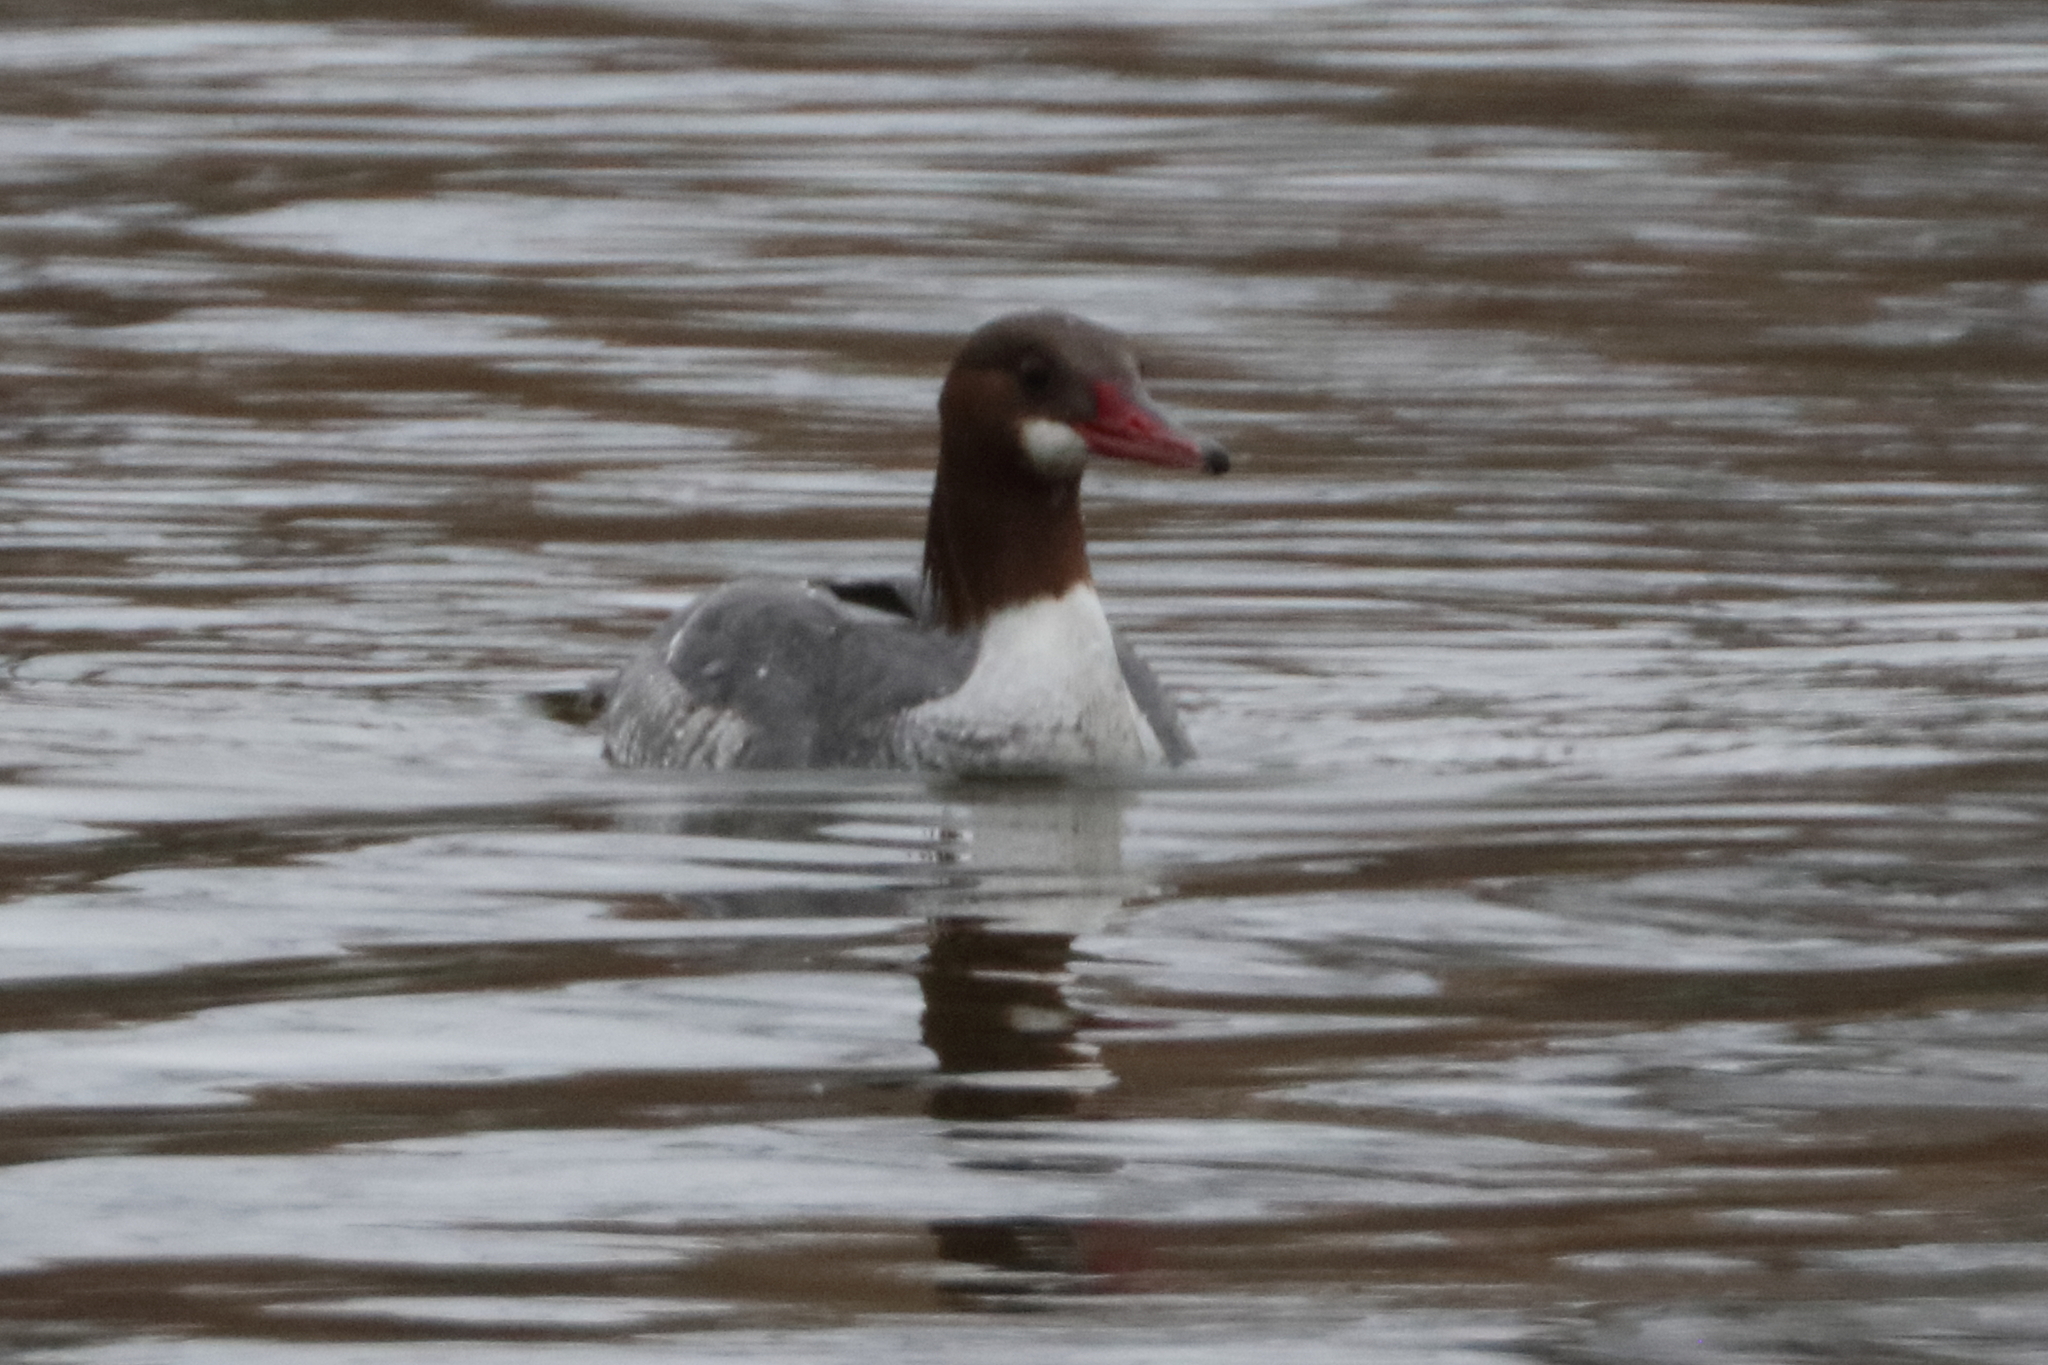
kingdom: Animalia
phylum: Chordata
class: Aves
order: Anseriformes
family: Anatidae
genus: Mergus
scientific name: Mergus merganser
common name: Common merganser
